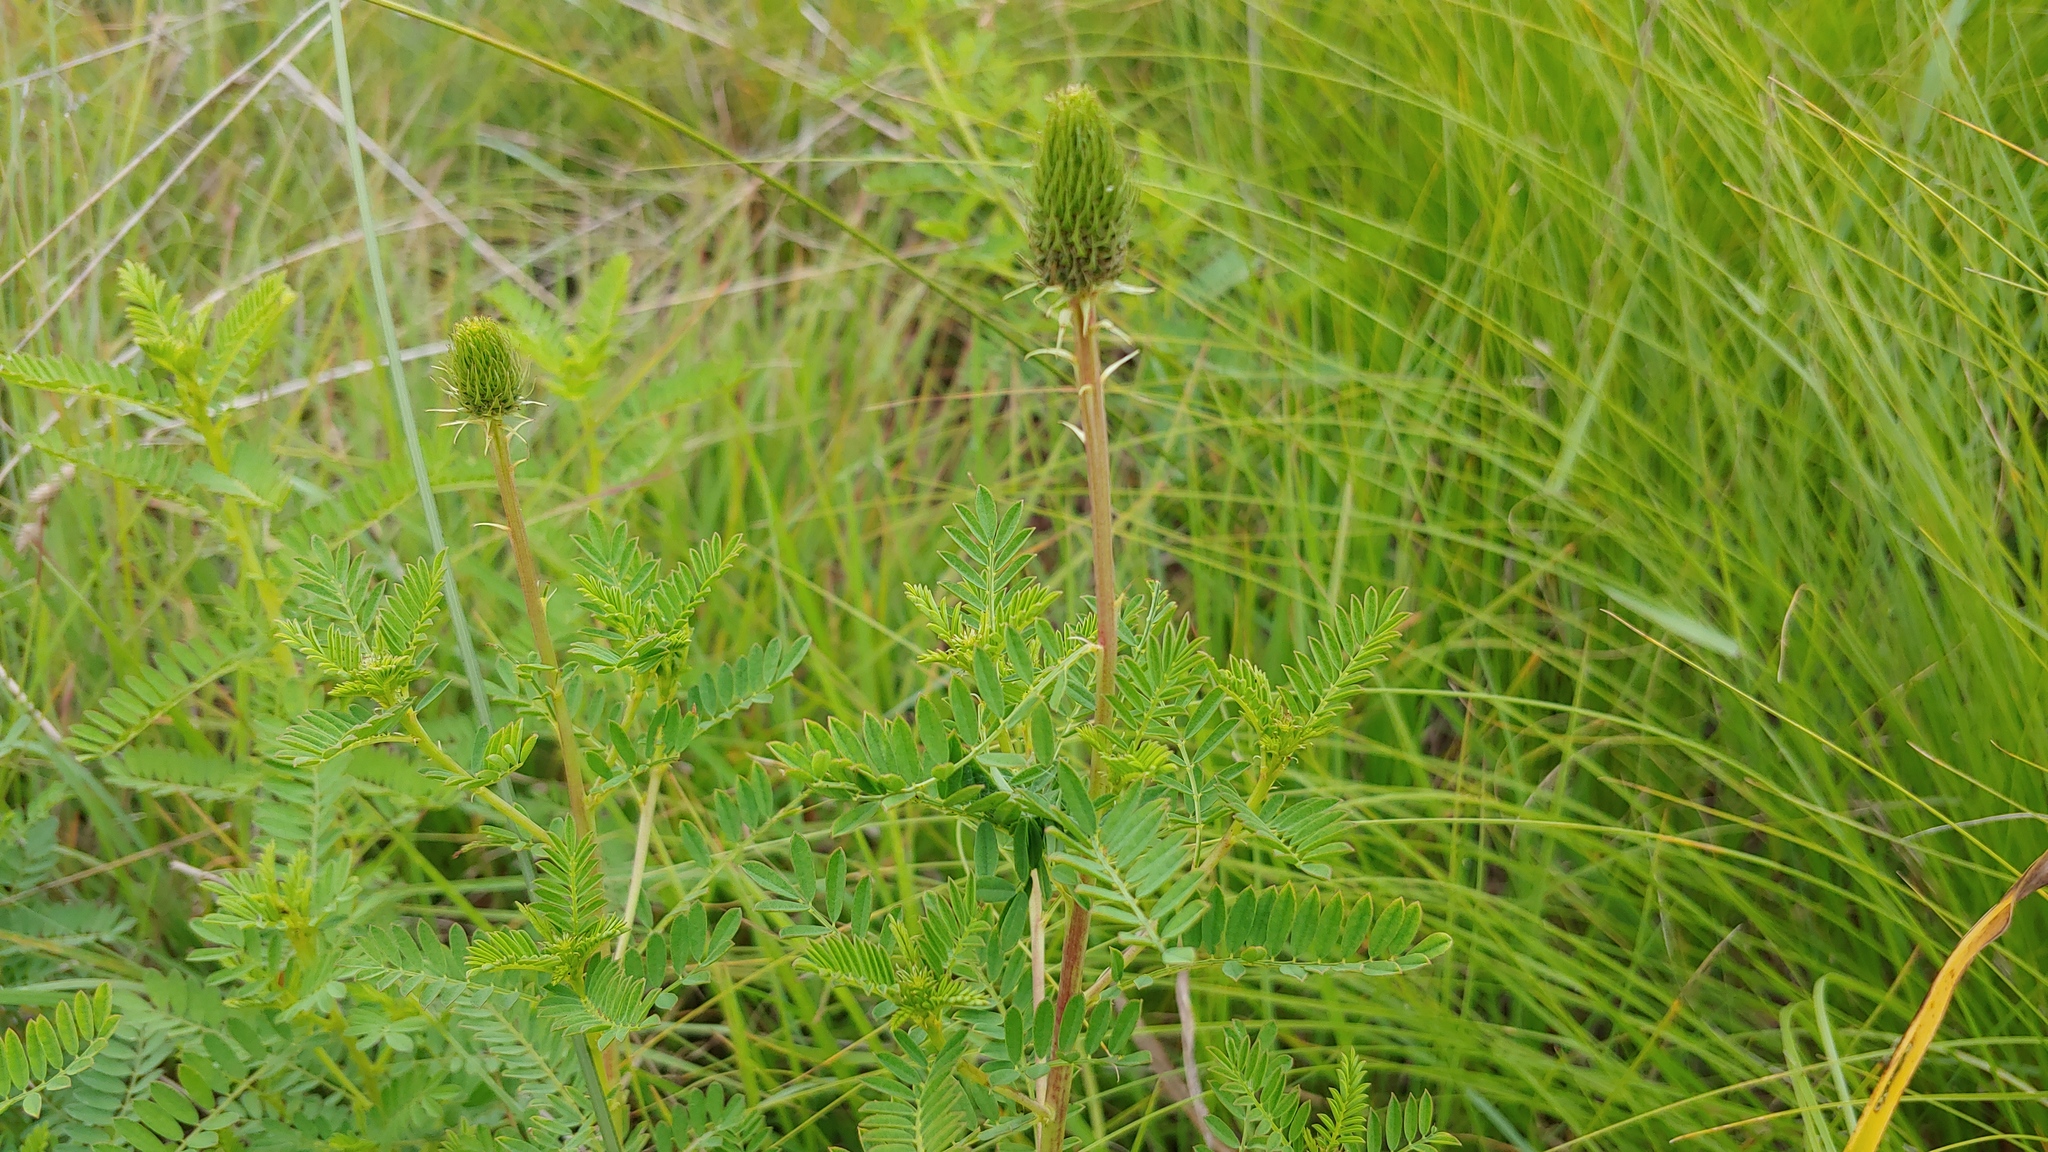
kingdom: Plantae
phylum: Tracheophyta
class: Magnoliopsida
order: Fabales
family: Fabaceae
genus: Dalea
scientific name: Dalea foliosa
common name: Leafy prairie-clover
